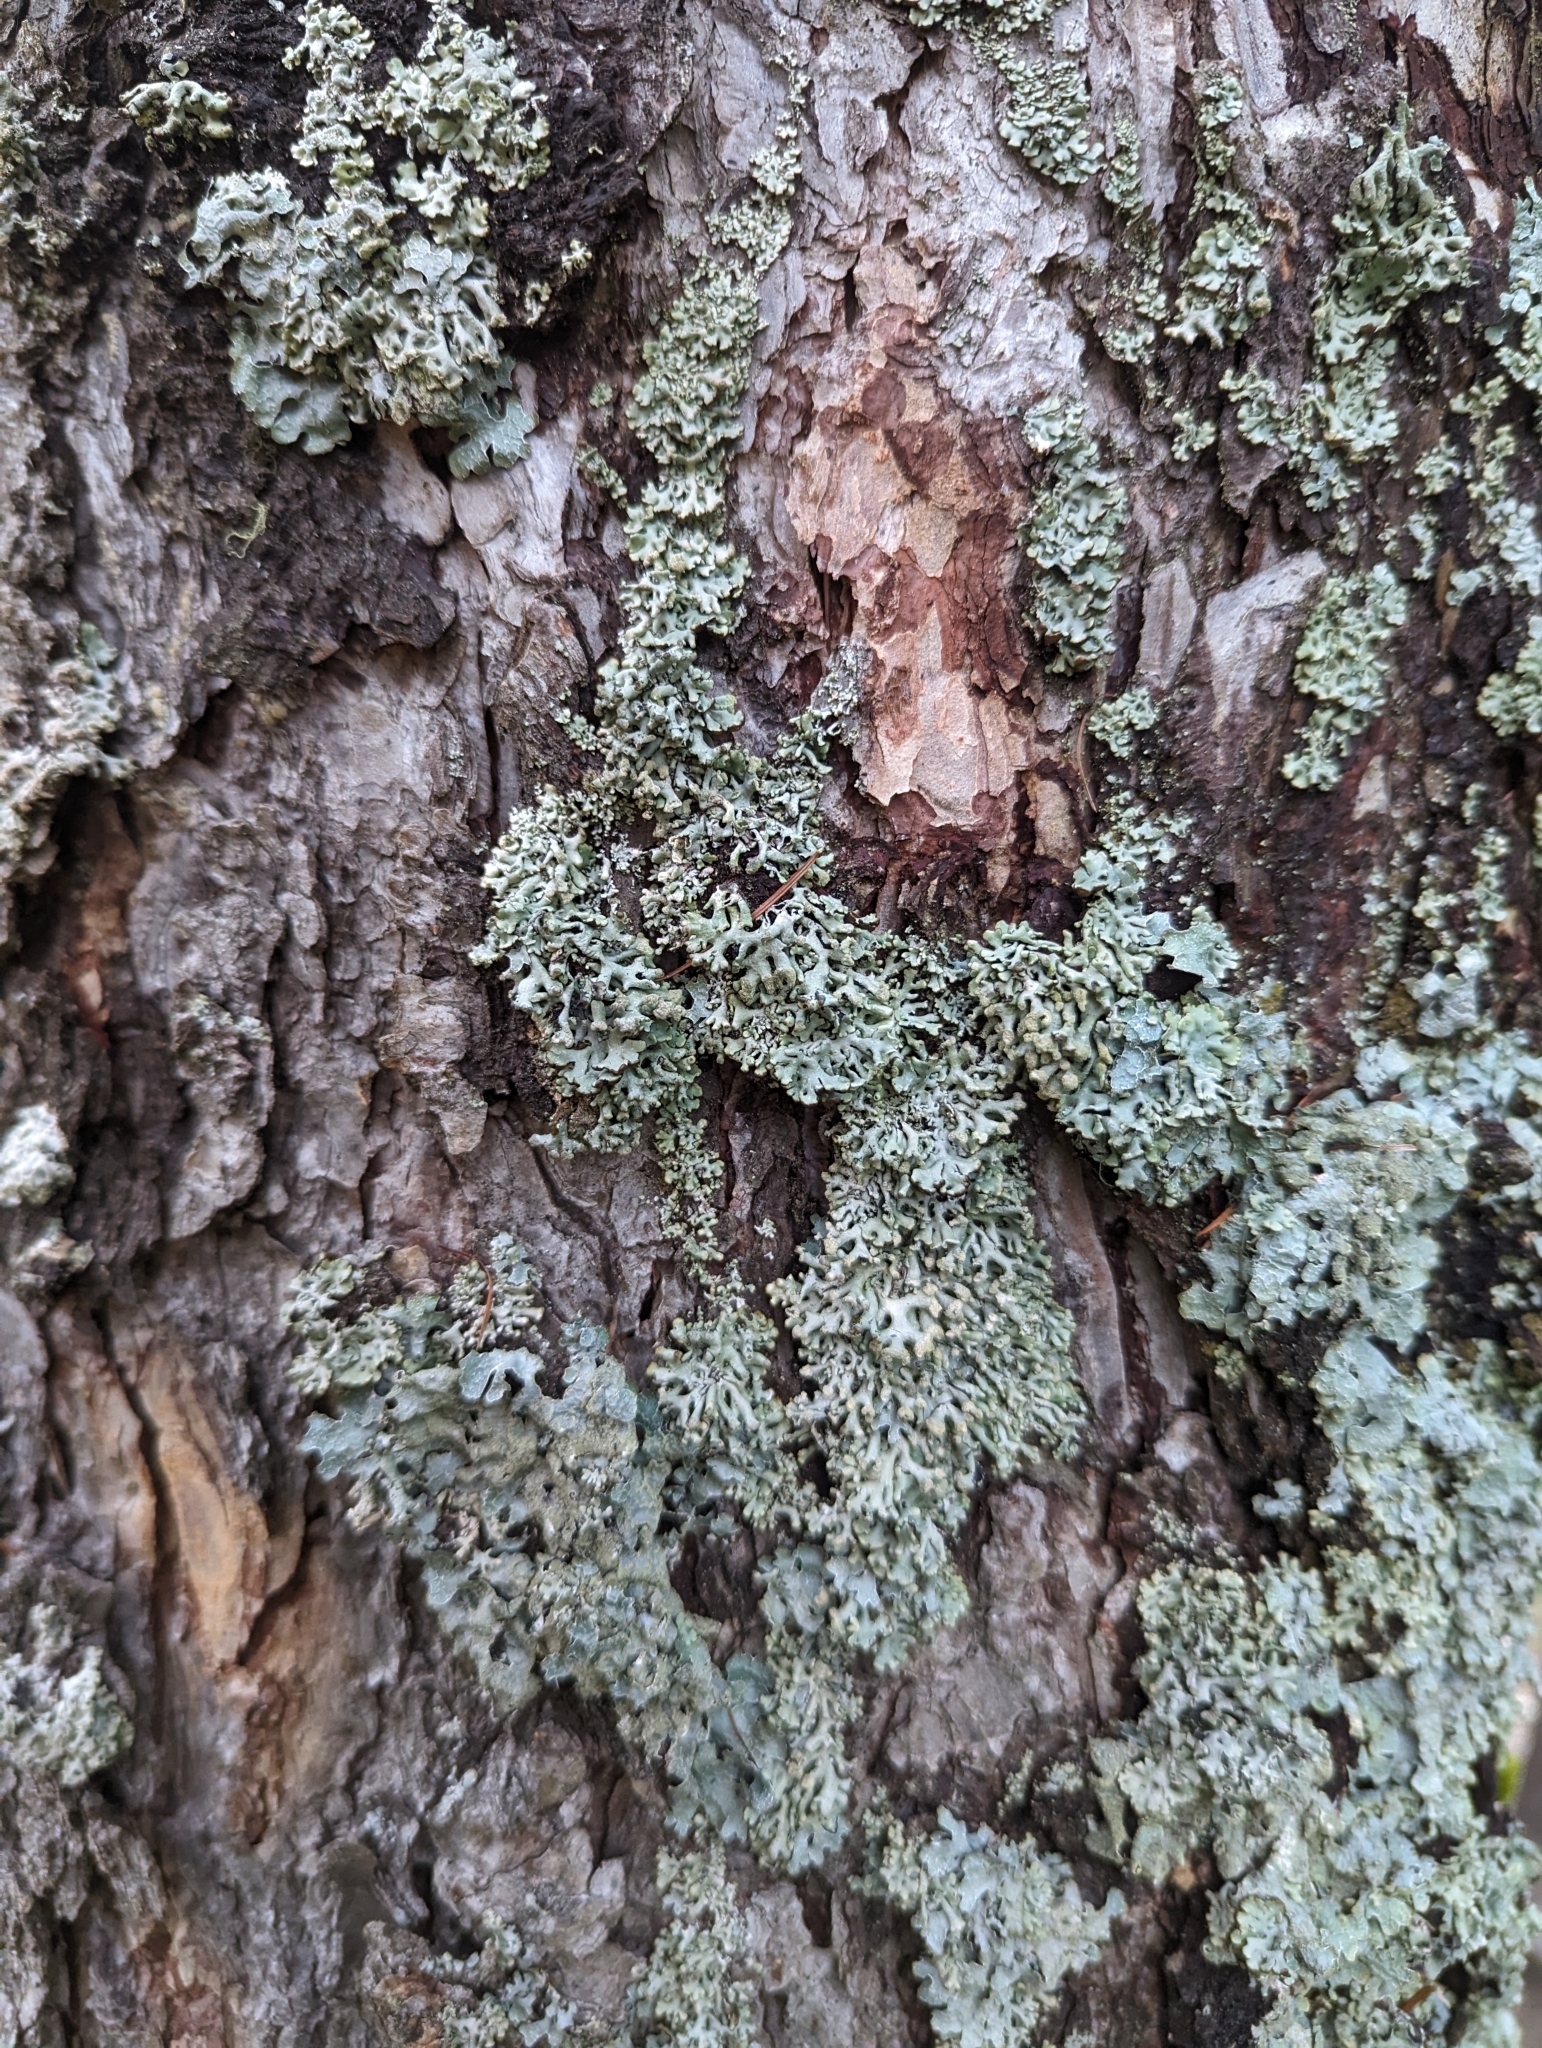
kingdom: Fungi
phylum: Ascomycota
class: Lecanoromycetes
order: Lecanorales
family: Parmeliaceae
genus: Hypogymnia
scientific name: Hypogymnia tubulosa
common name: Powder-headed tube lichen
